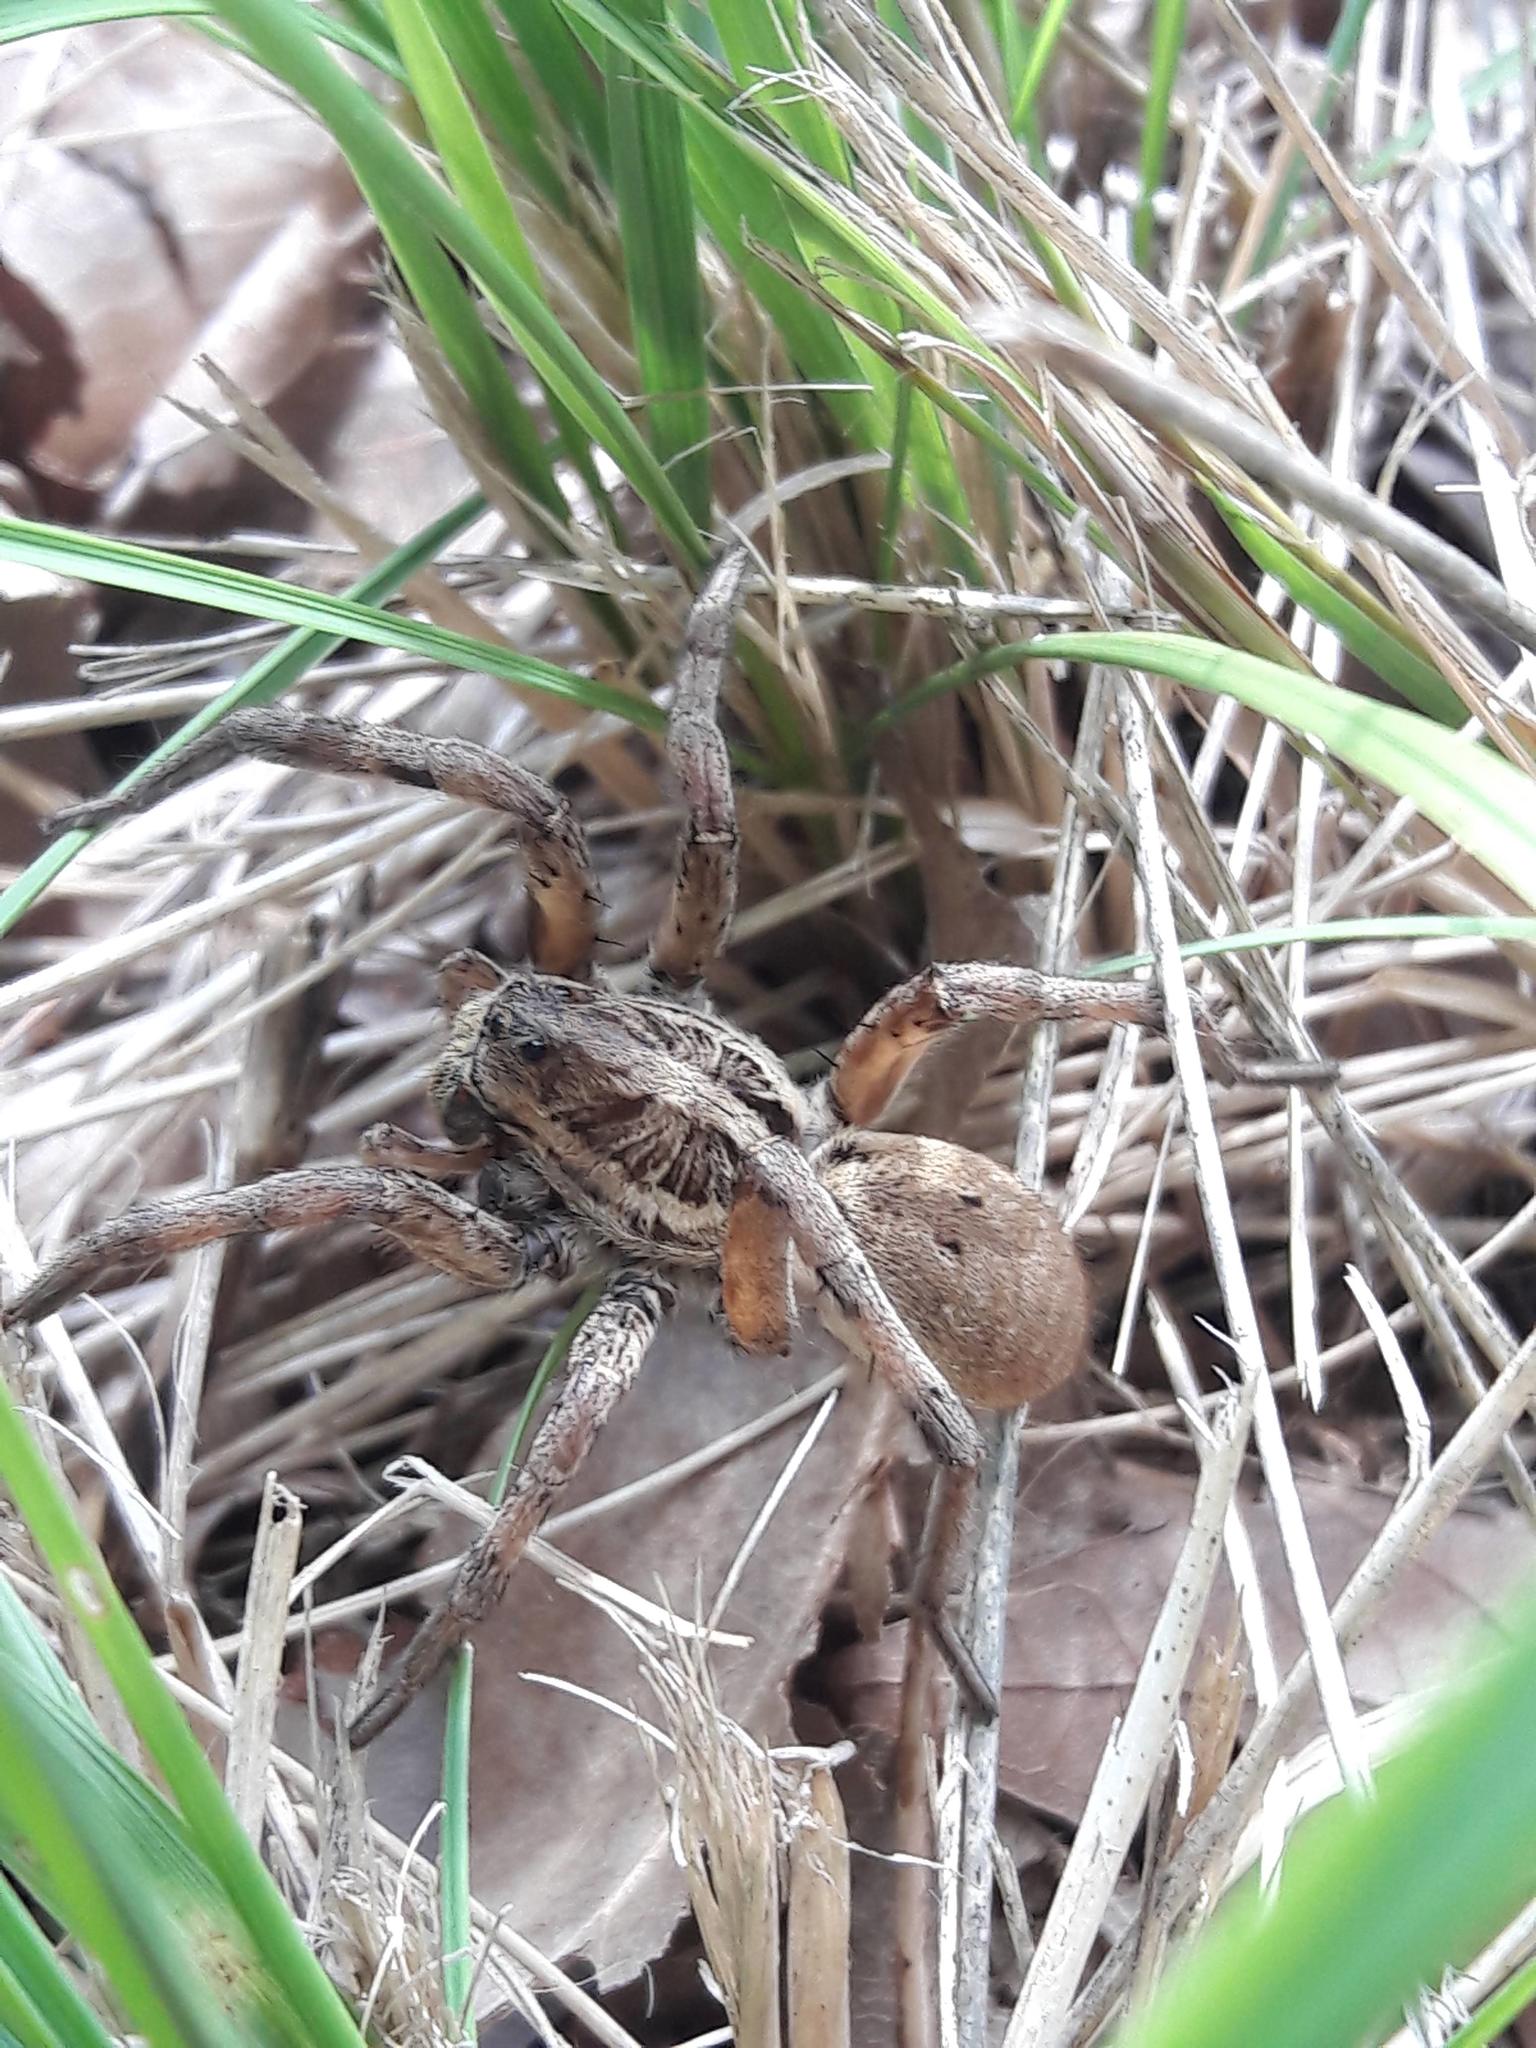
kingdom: Animalia
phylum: Arthropoda
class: Arachnida
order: Araneae
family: Lycosidae
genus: Hogna
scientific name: Hogna radiata
